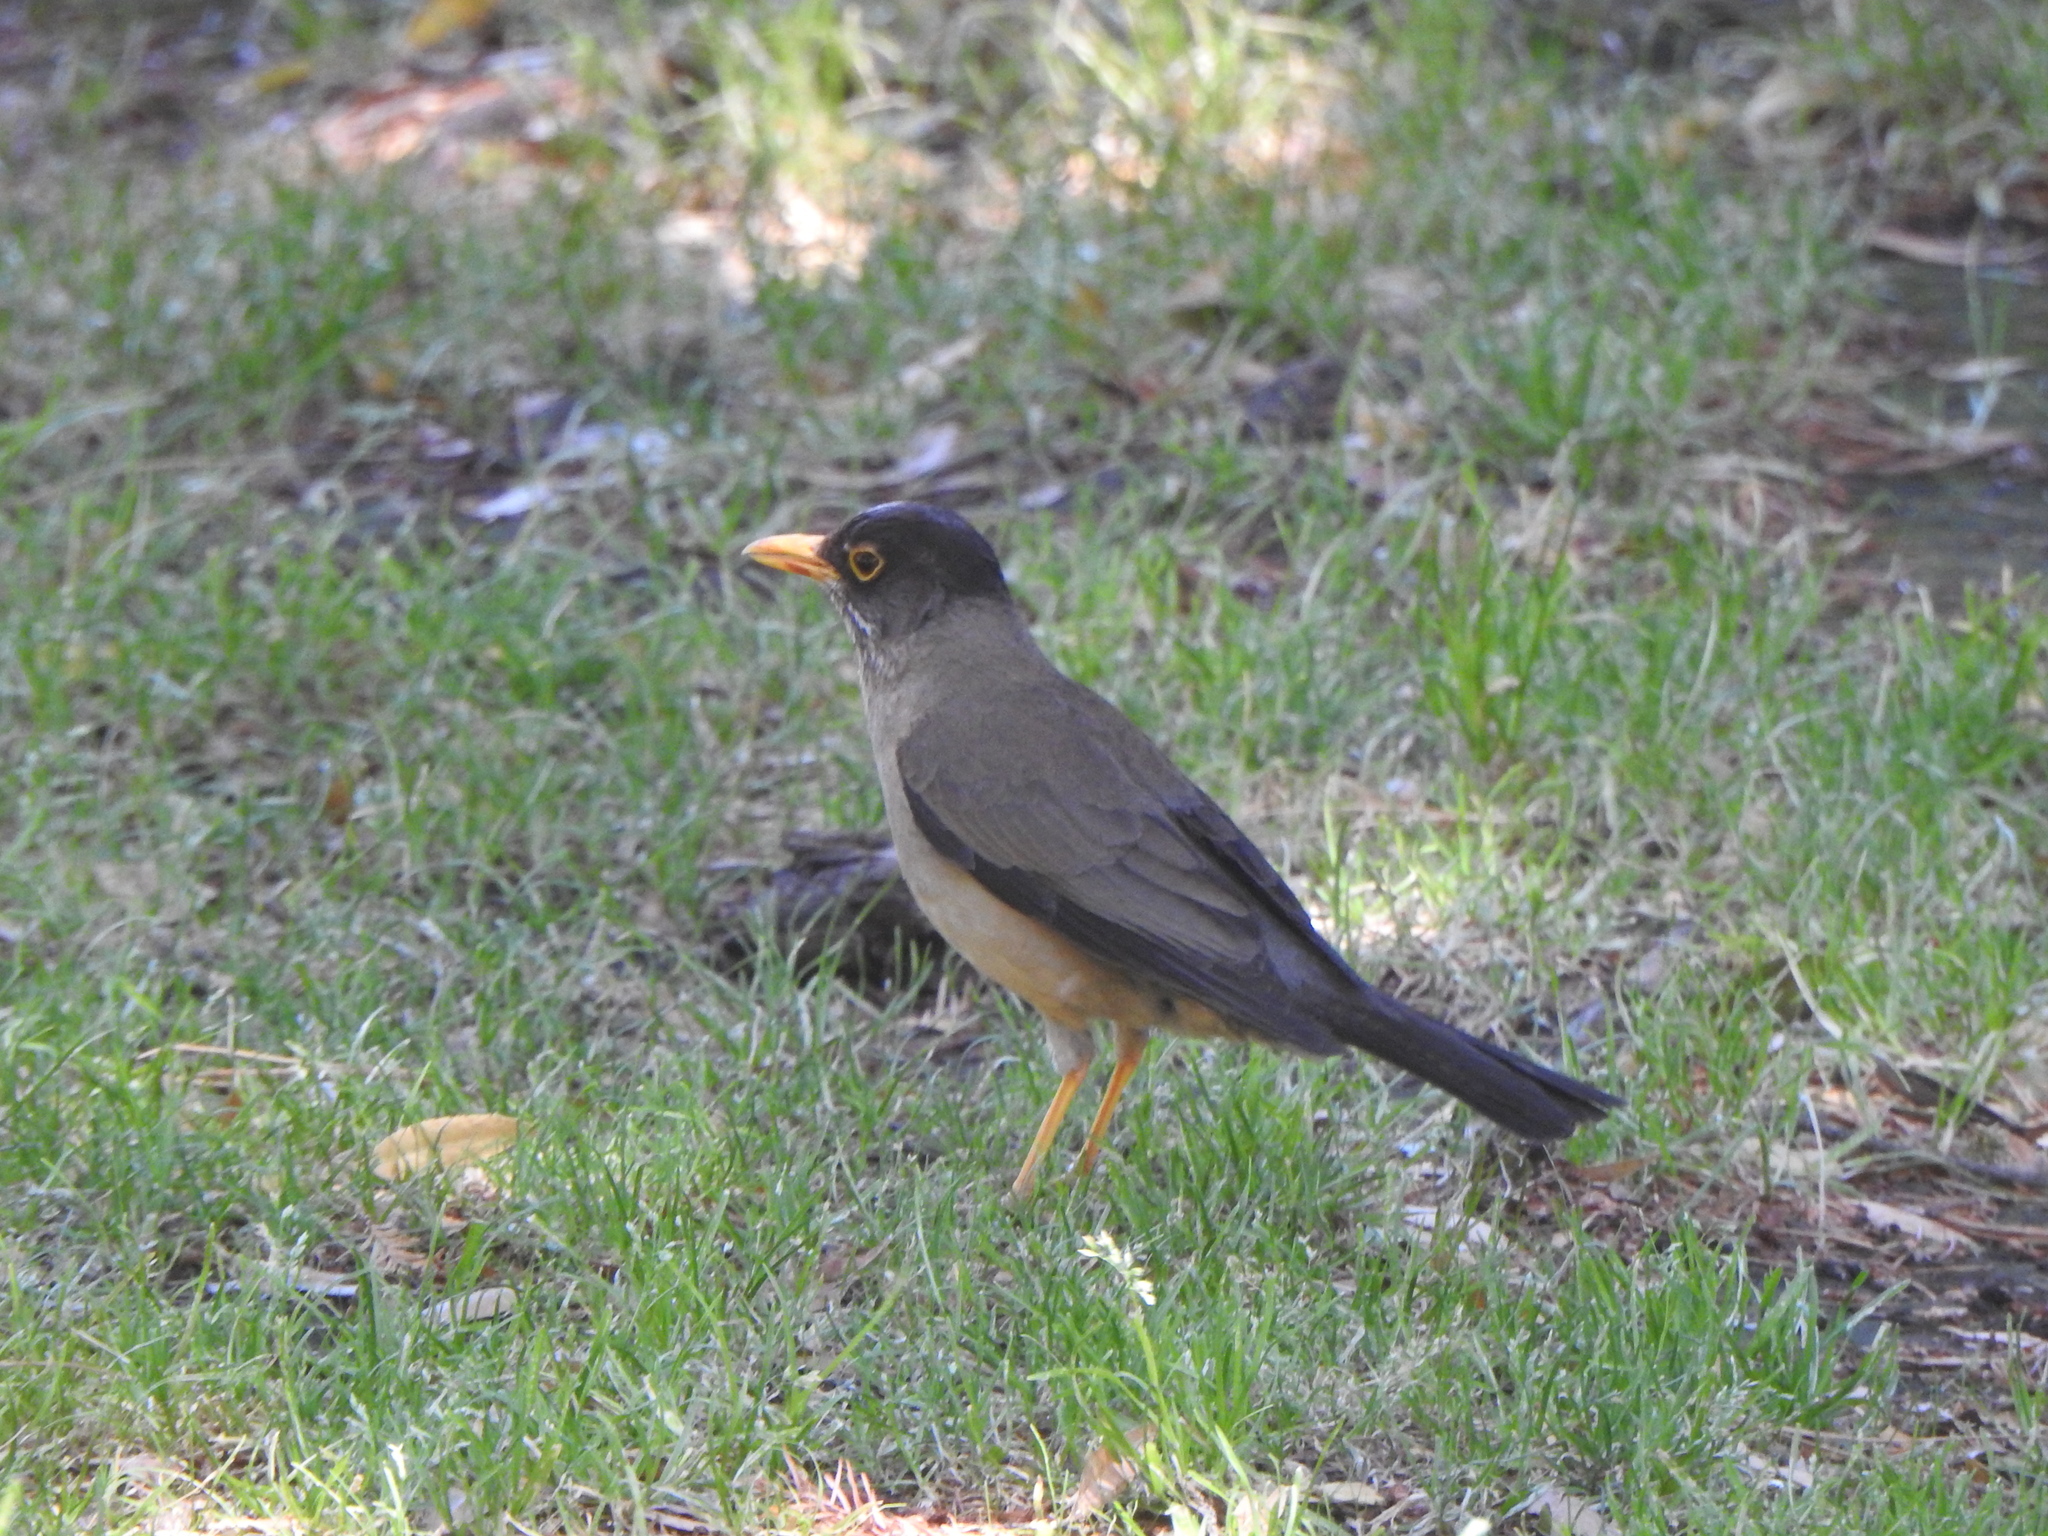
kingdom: Animalia
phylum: Chordata
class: Aves
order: Passeriformes
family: Turdidae
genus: Turdus
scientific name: Turdus falcklandii
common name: Austral thrush
